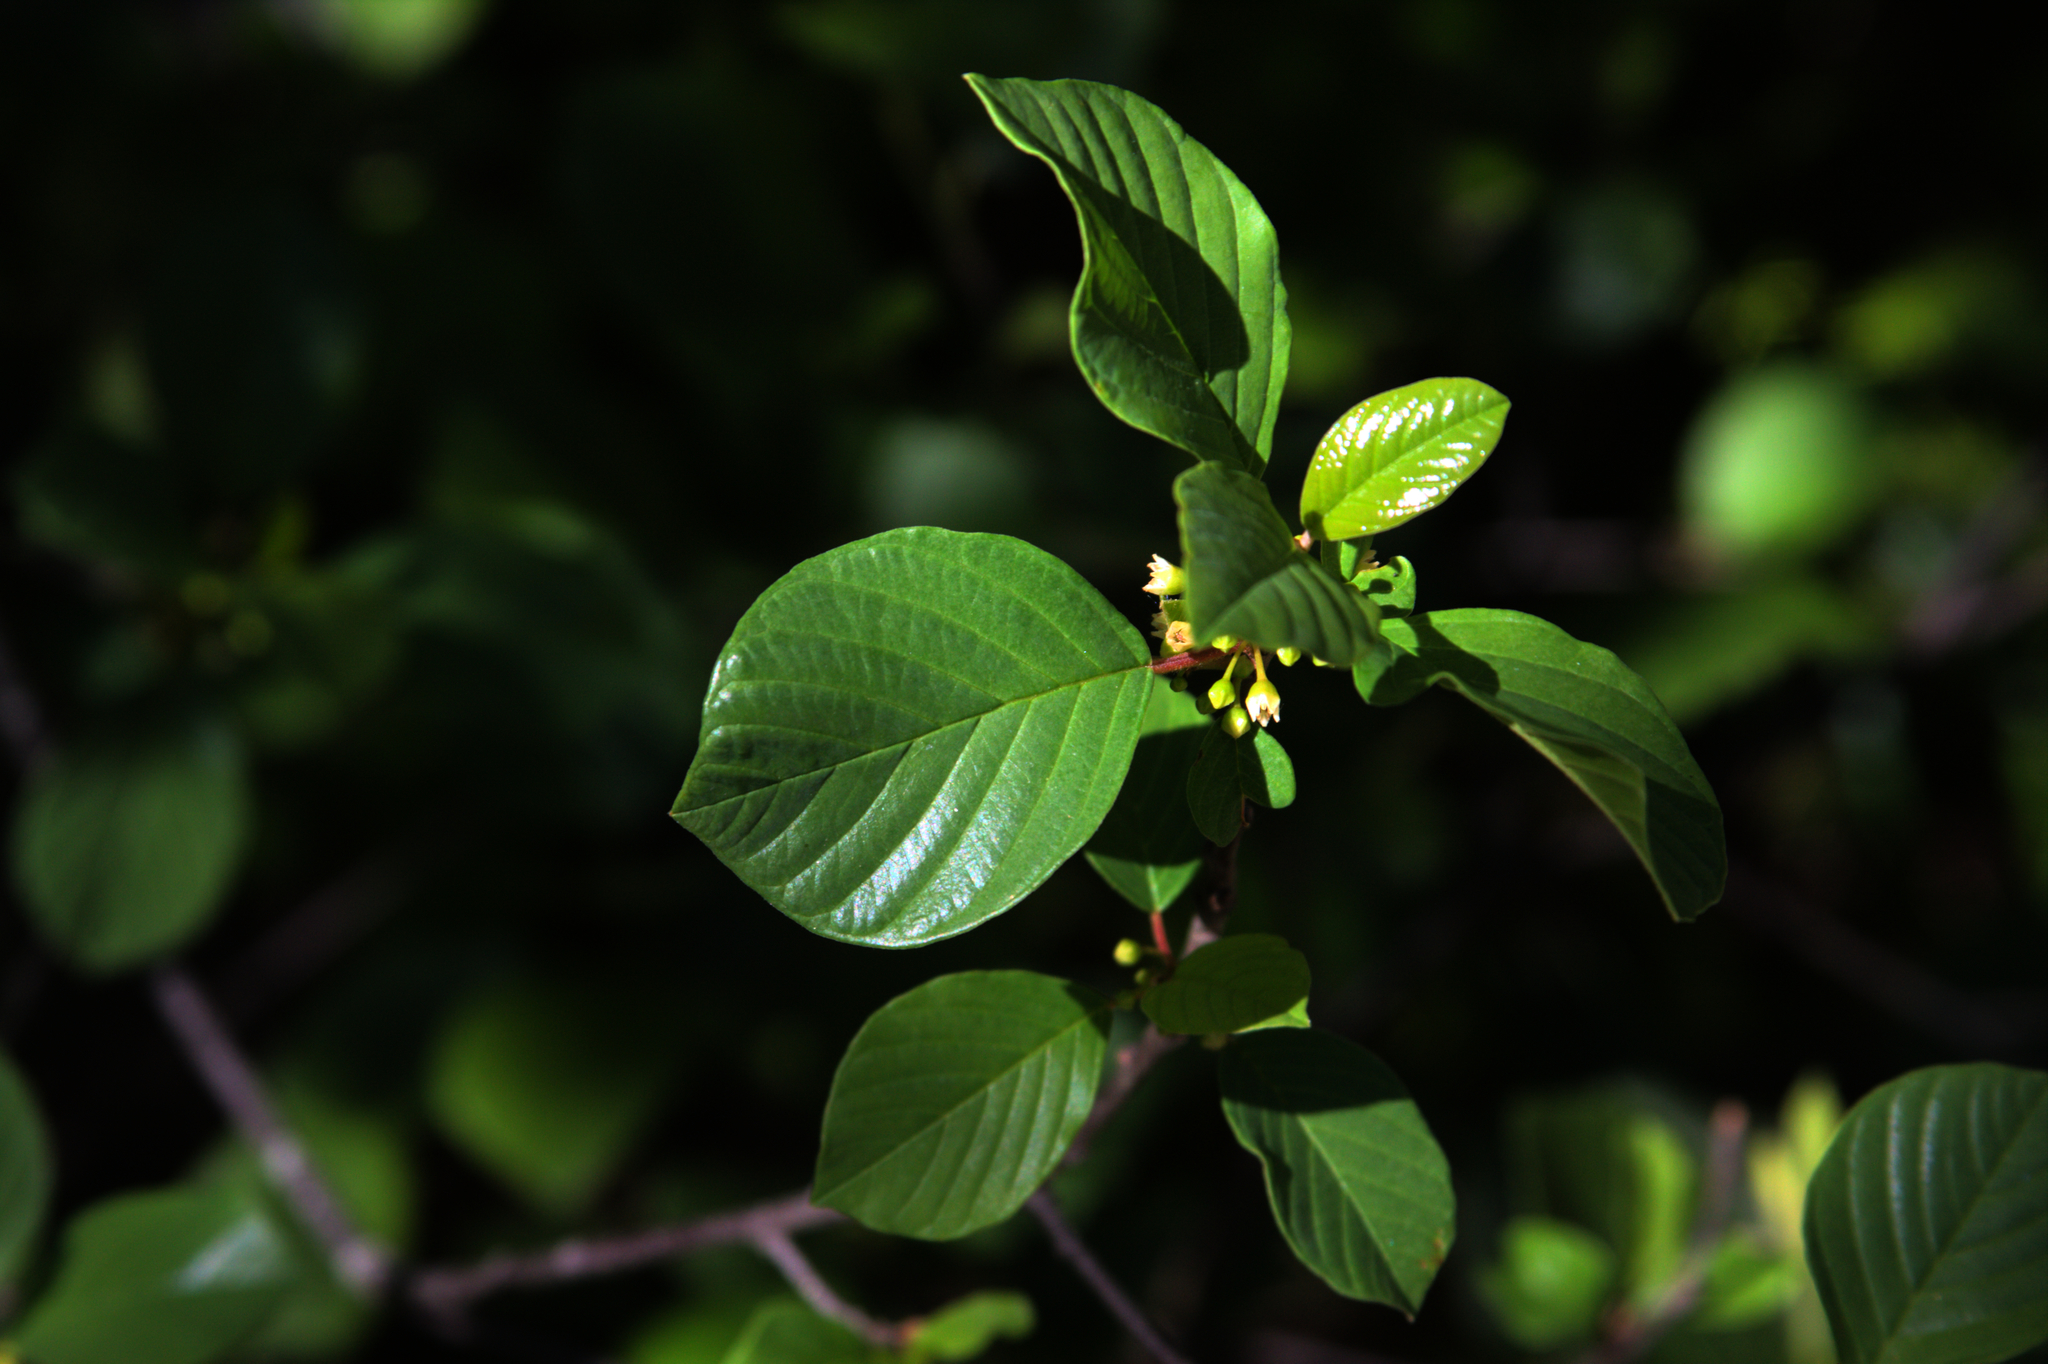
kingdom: Plantae
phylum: Tracheophyta
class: Magnoliopsida
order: Rosales
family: Rhamnaceae
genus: Frangula
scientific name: Frangula alnus
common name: Alder buckthorn
